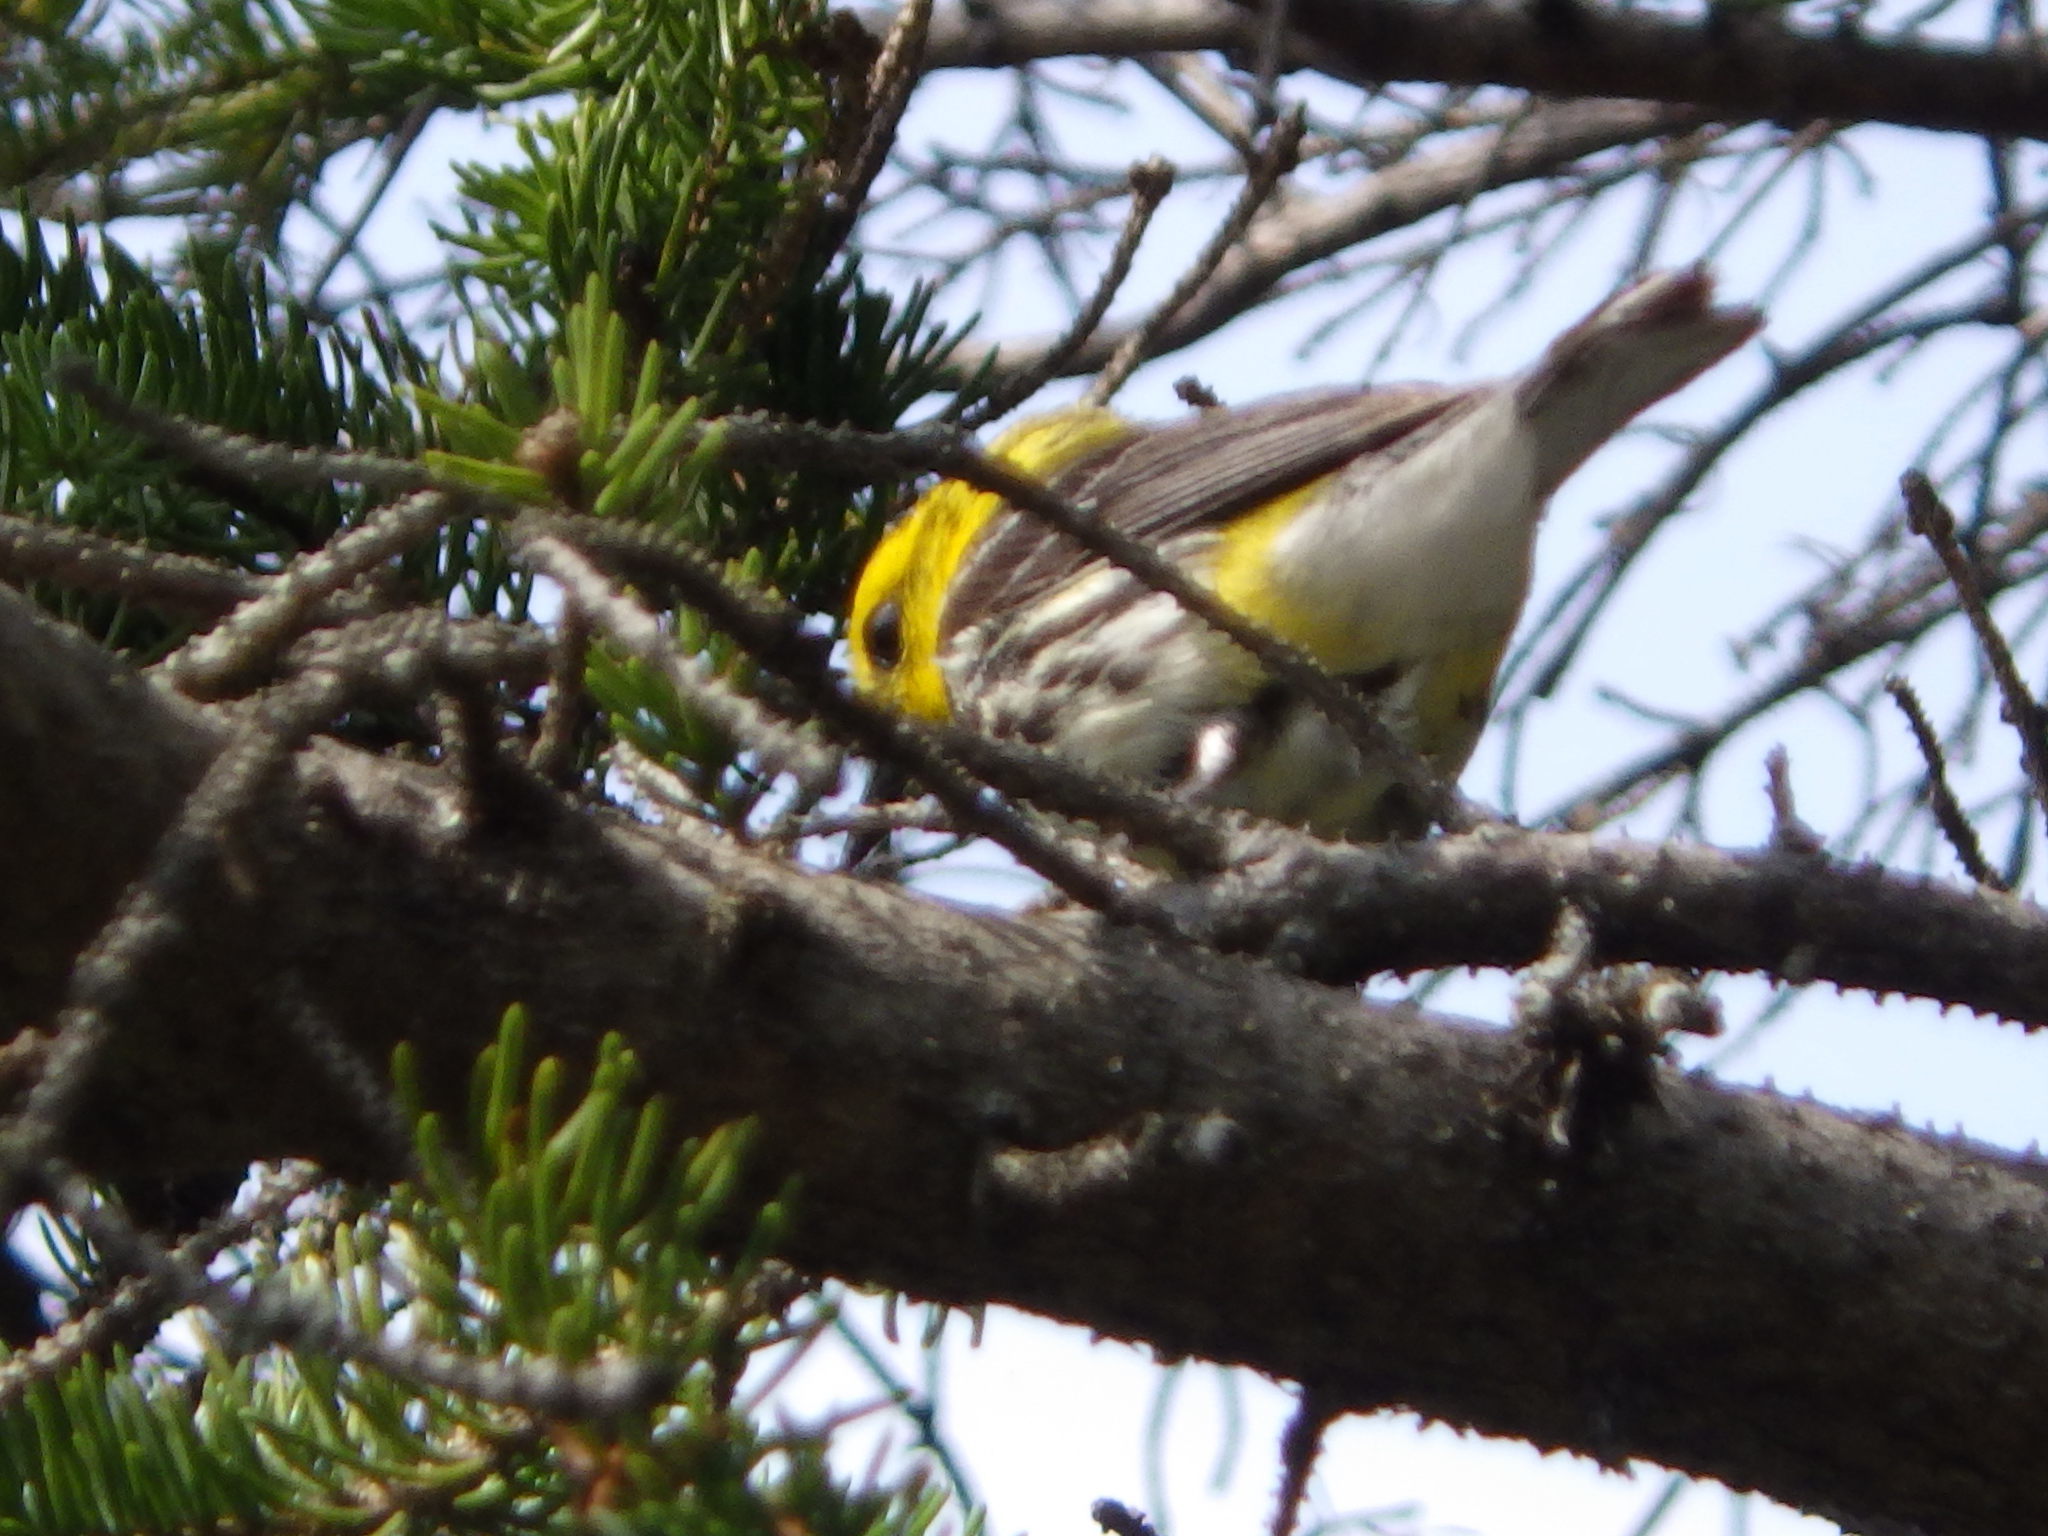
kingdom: Animalia
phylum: Chordata
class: Aves
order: Passeriformes
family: Parulidae
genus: Setophaga
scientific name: Setophaga virens
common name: Black-throated green warbler
